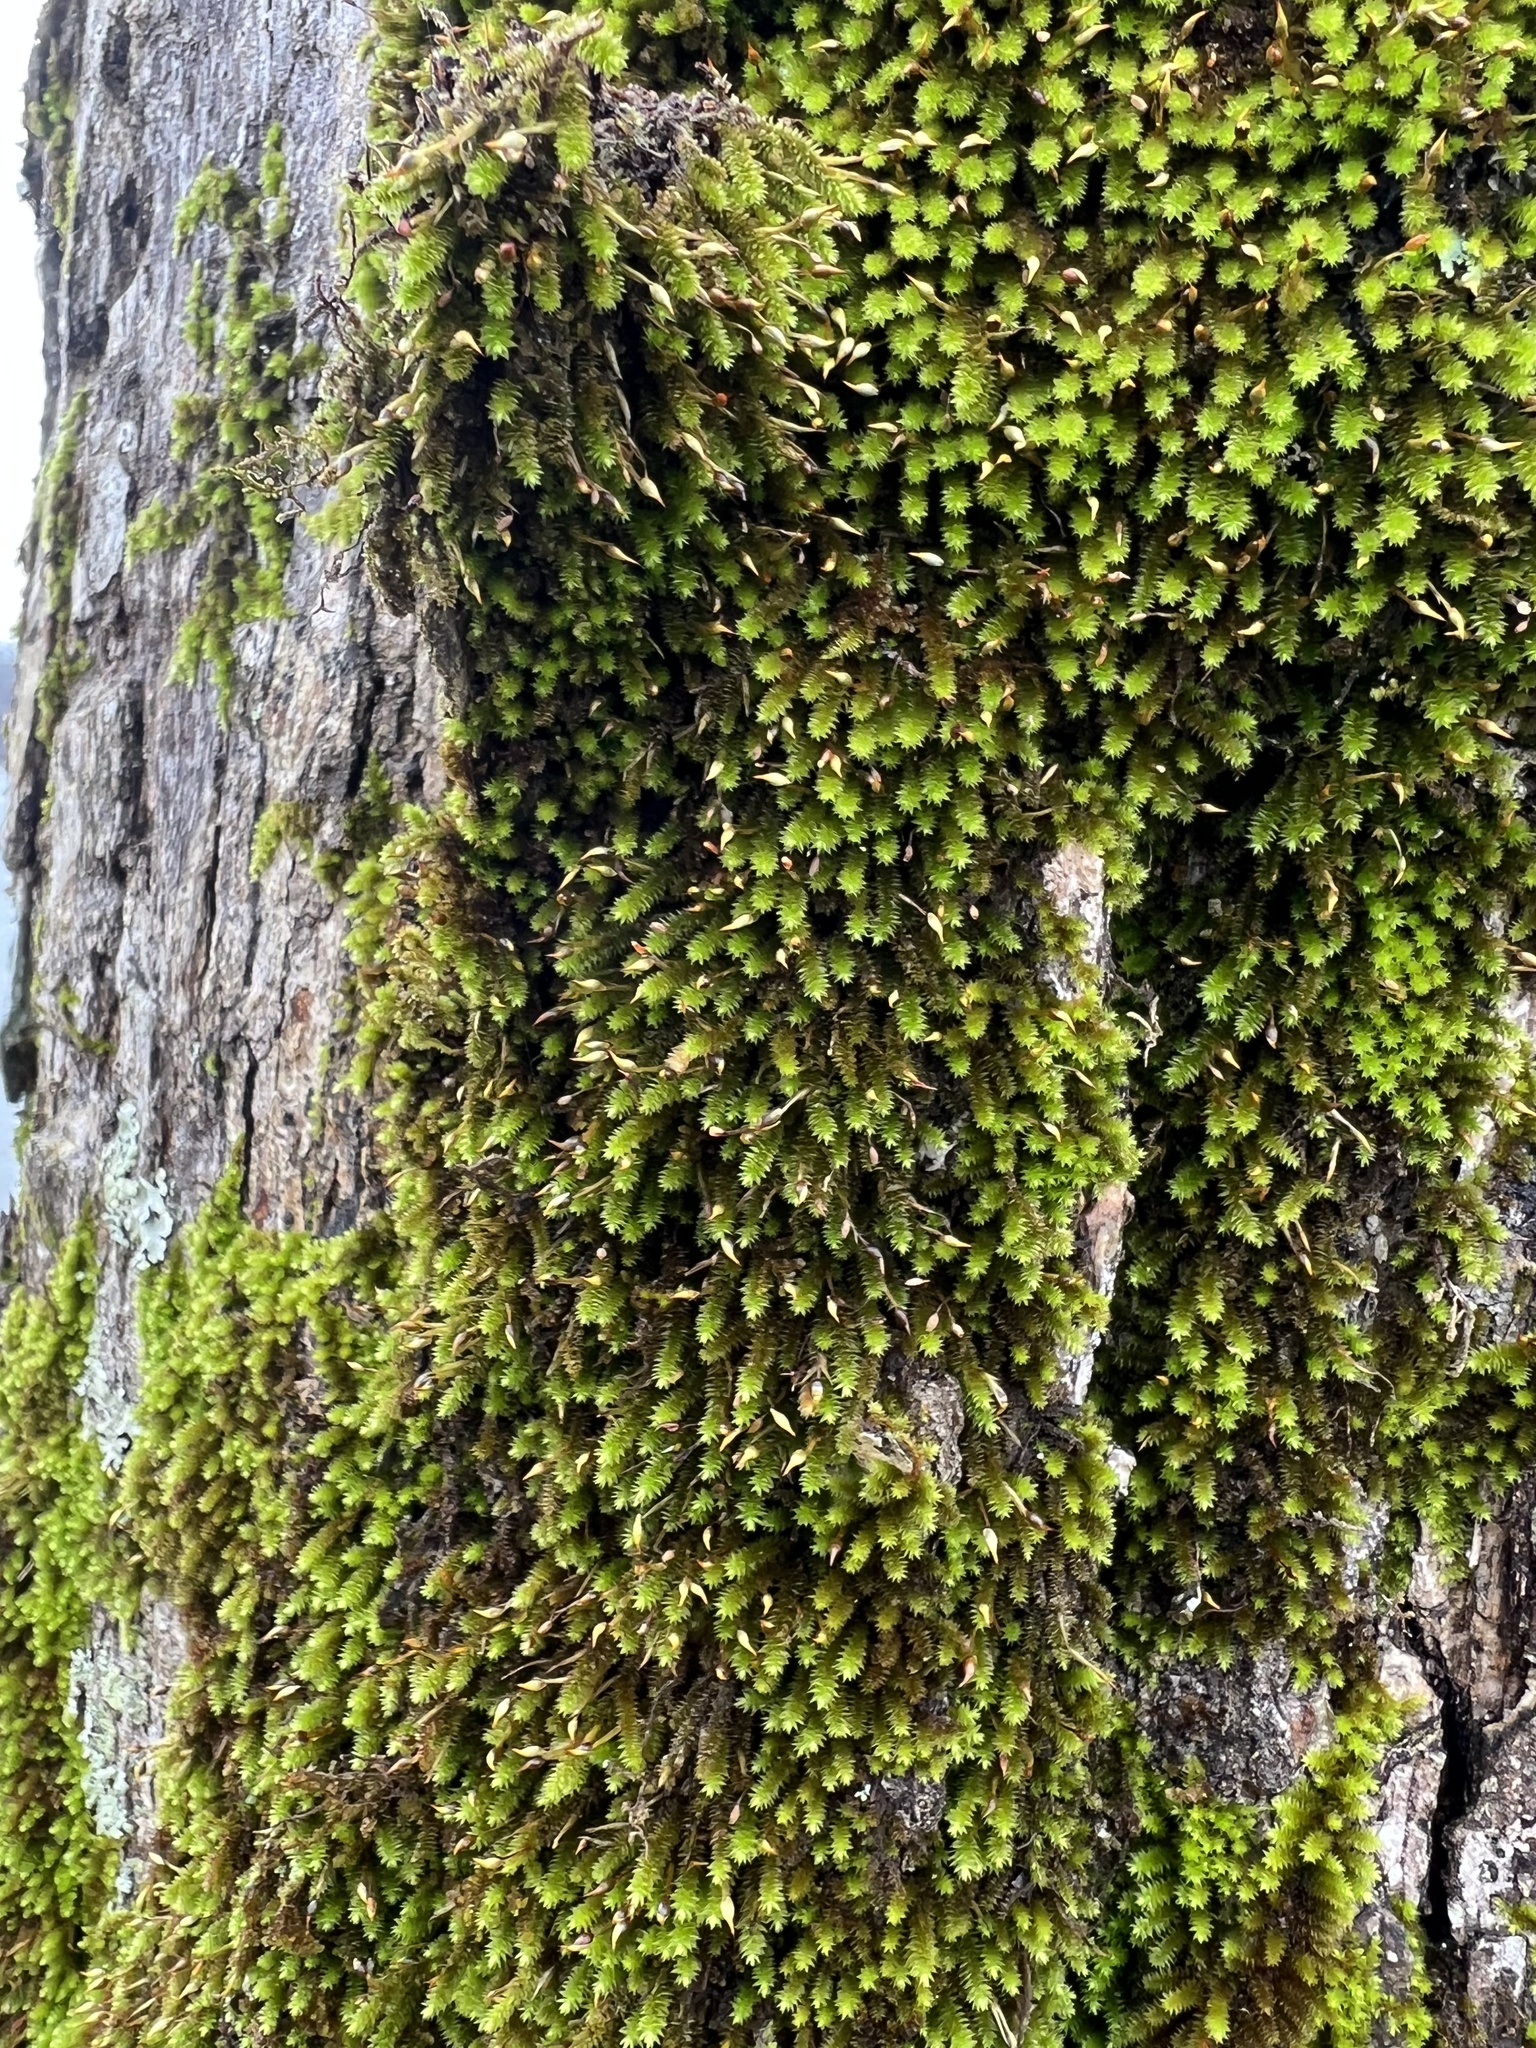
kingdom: Plantae
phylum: Bryophyta
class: Bryopsida
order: Hypnales
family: Leucodontaceae
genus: Leucodon
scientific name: Leucodon julaceus
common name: Smooth hook moss
